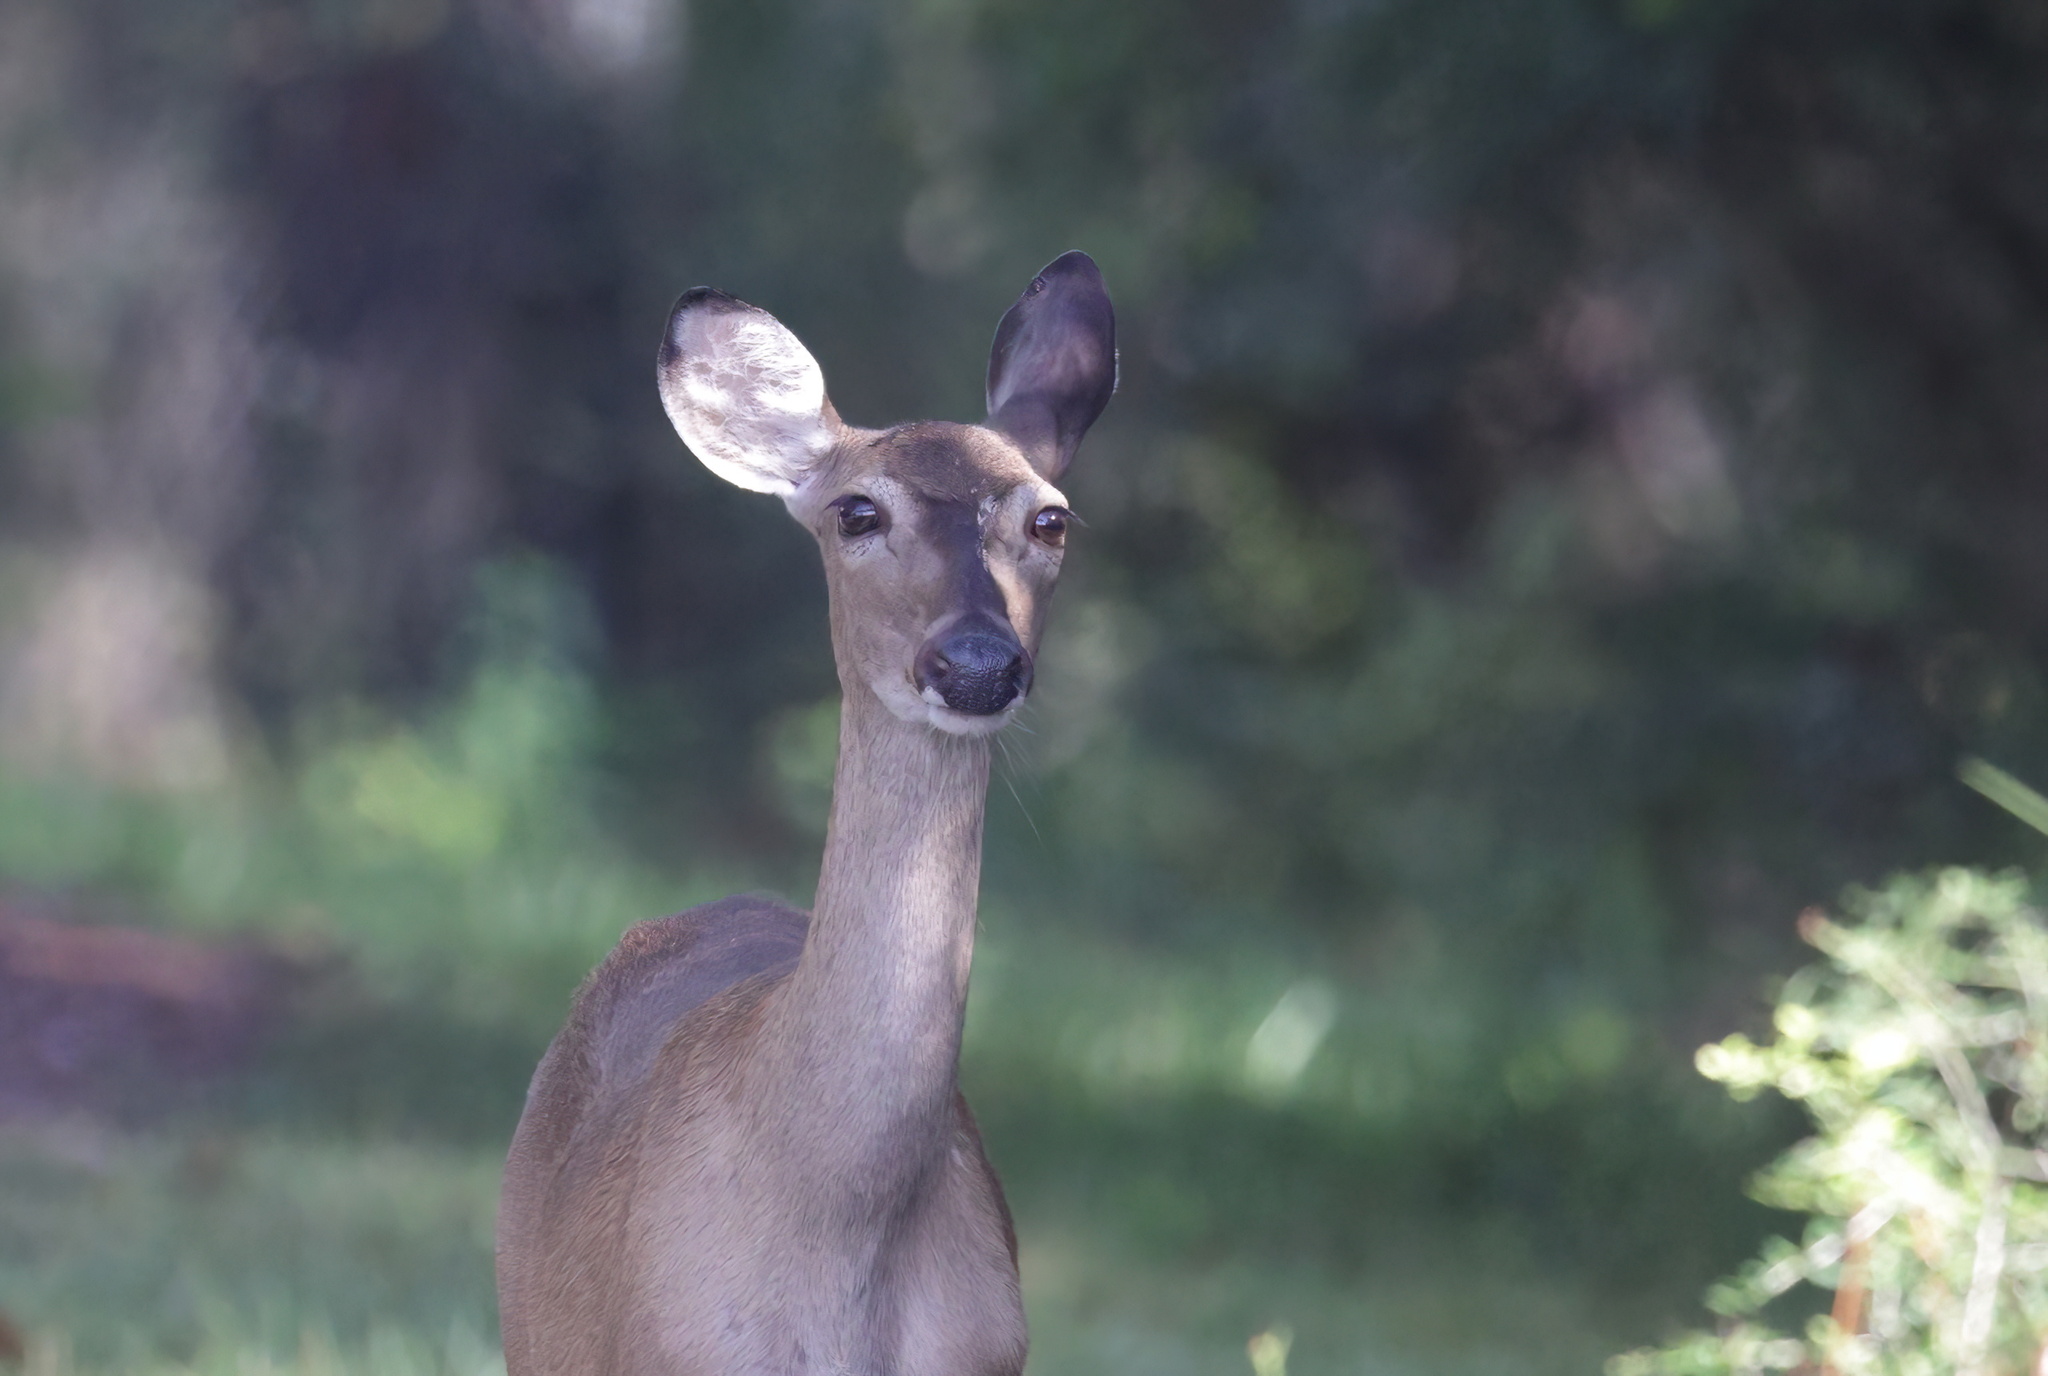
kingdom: Animalia
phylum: Chordata
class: Mammalia
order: Artiodactyla
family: Cervidae
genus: Odocoileus
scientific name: Odocoileus virginianus
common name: White-tailed deer
